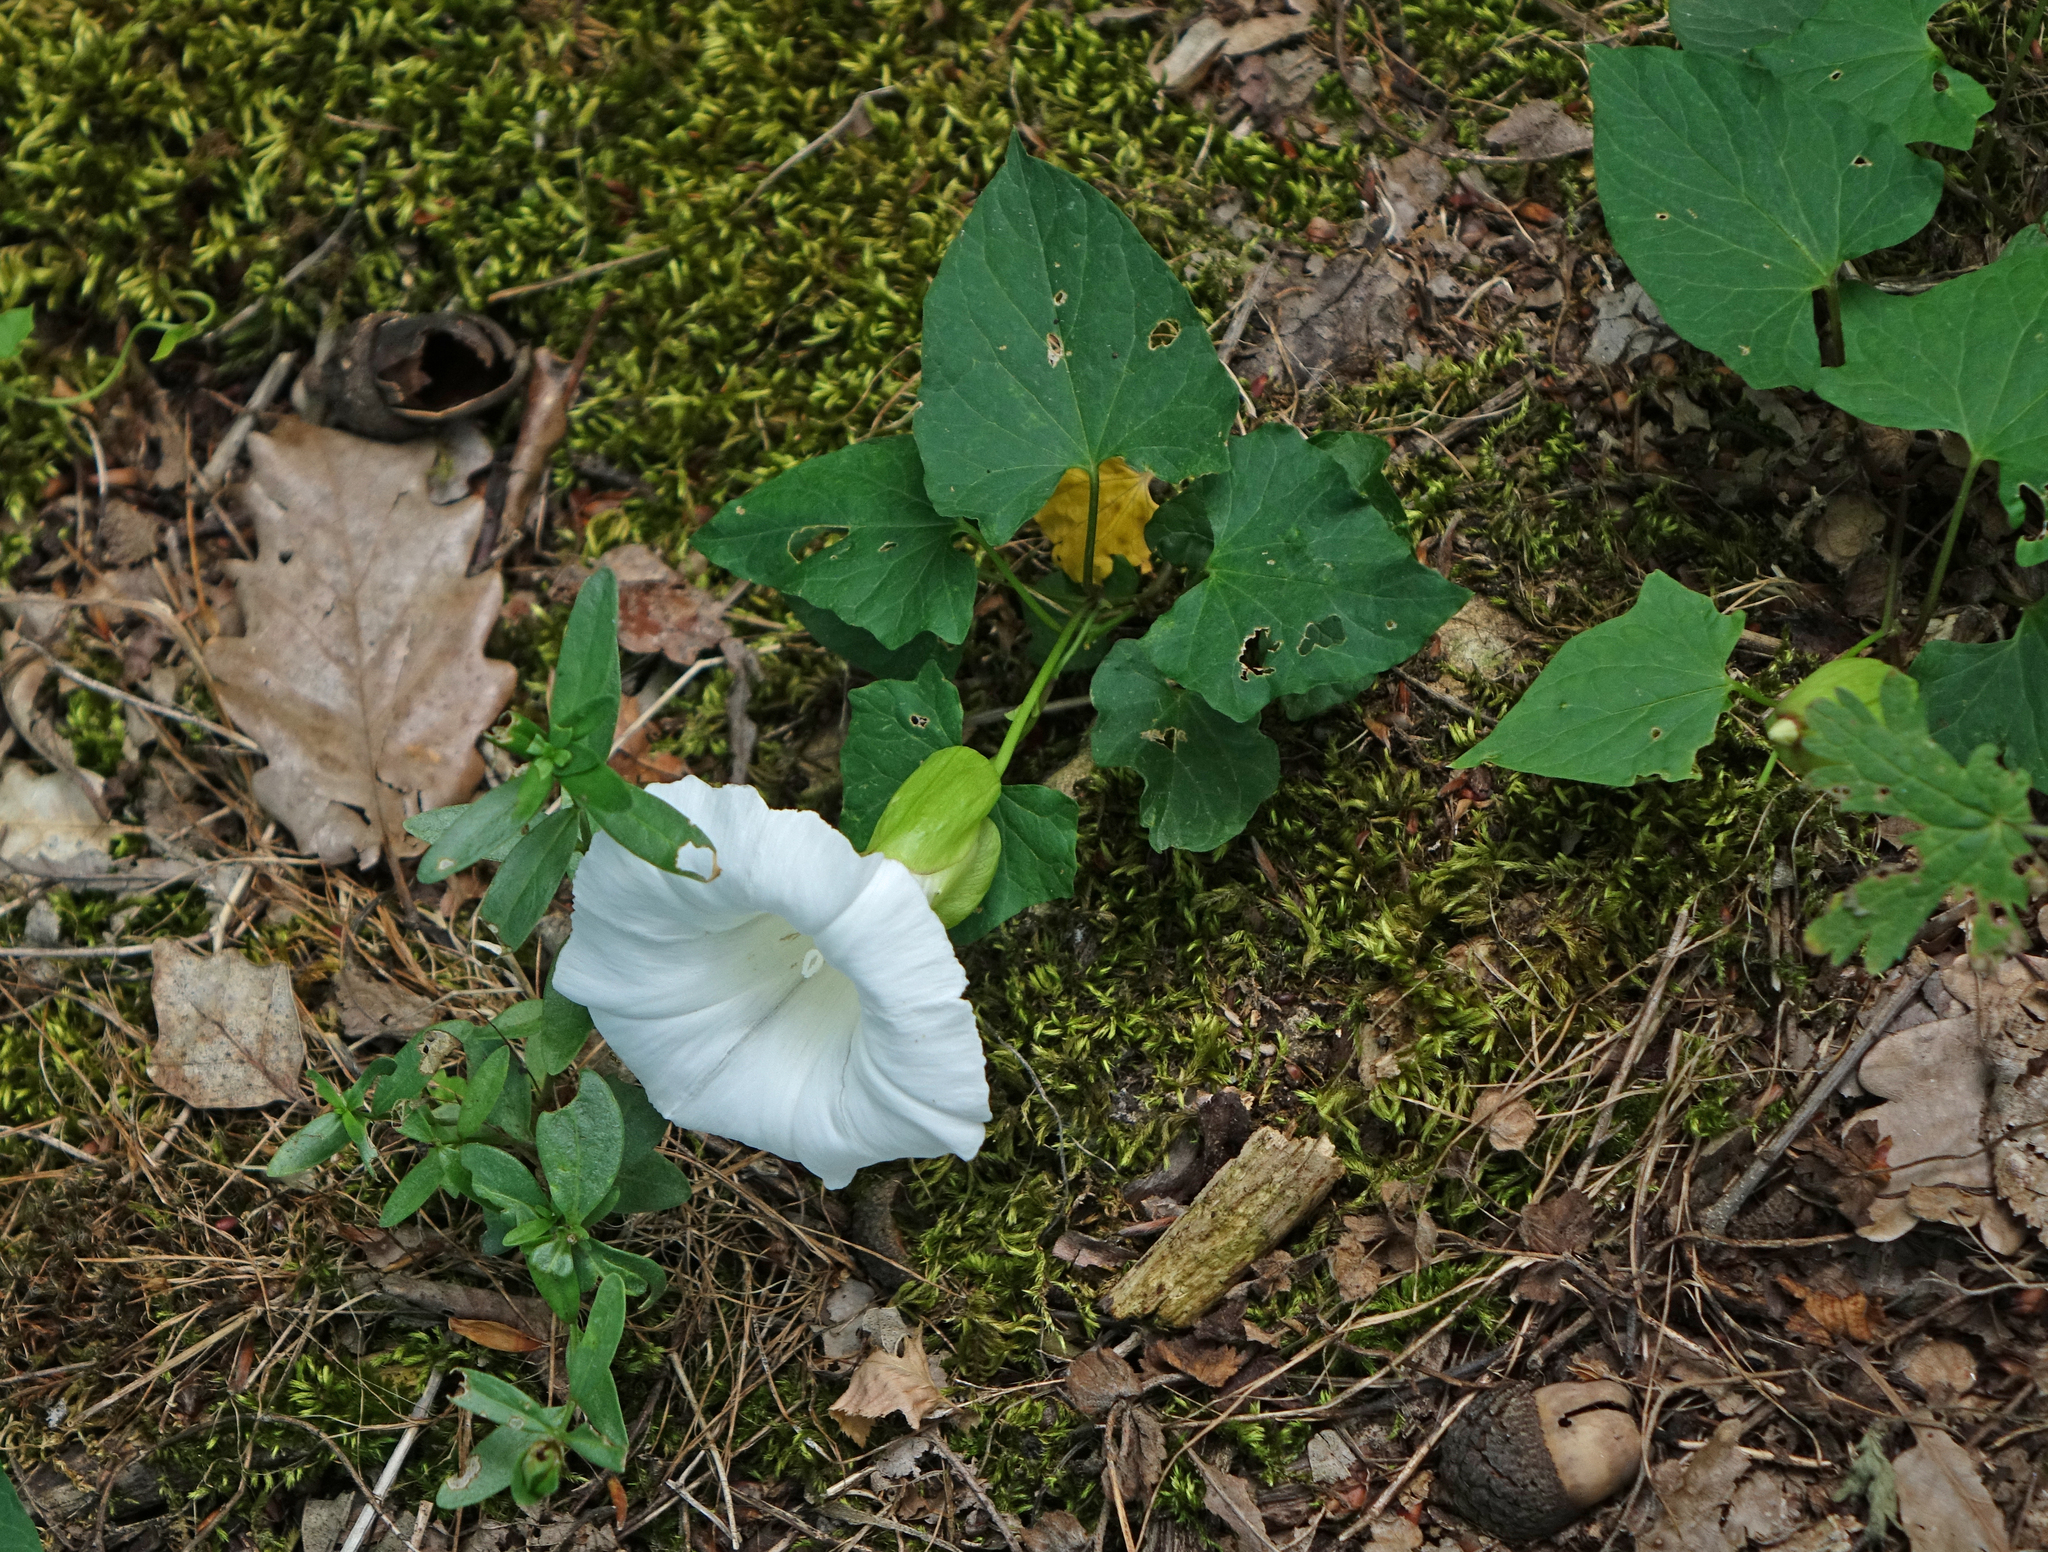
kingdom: Plantae
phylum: Tracheophyta
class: Magnoliopsida
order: Solanales
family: Convolvulaceae
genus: Calystegia
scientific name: Calystegia silvatica
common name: Large bindweed
